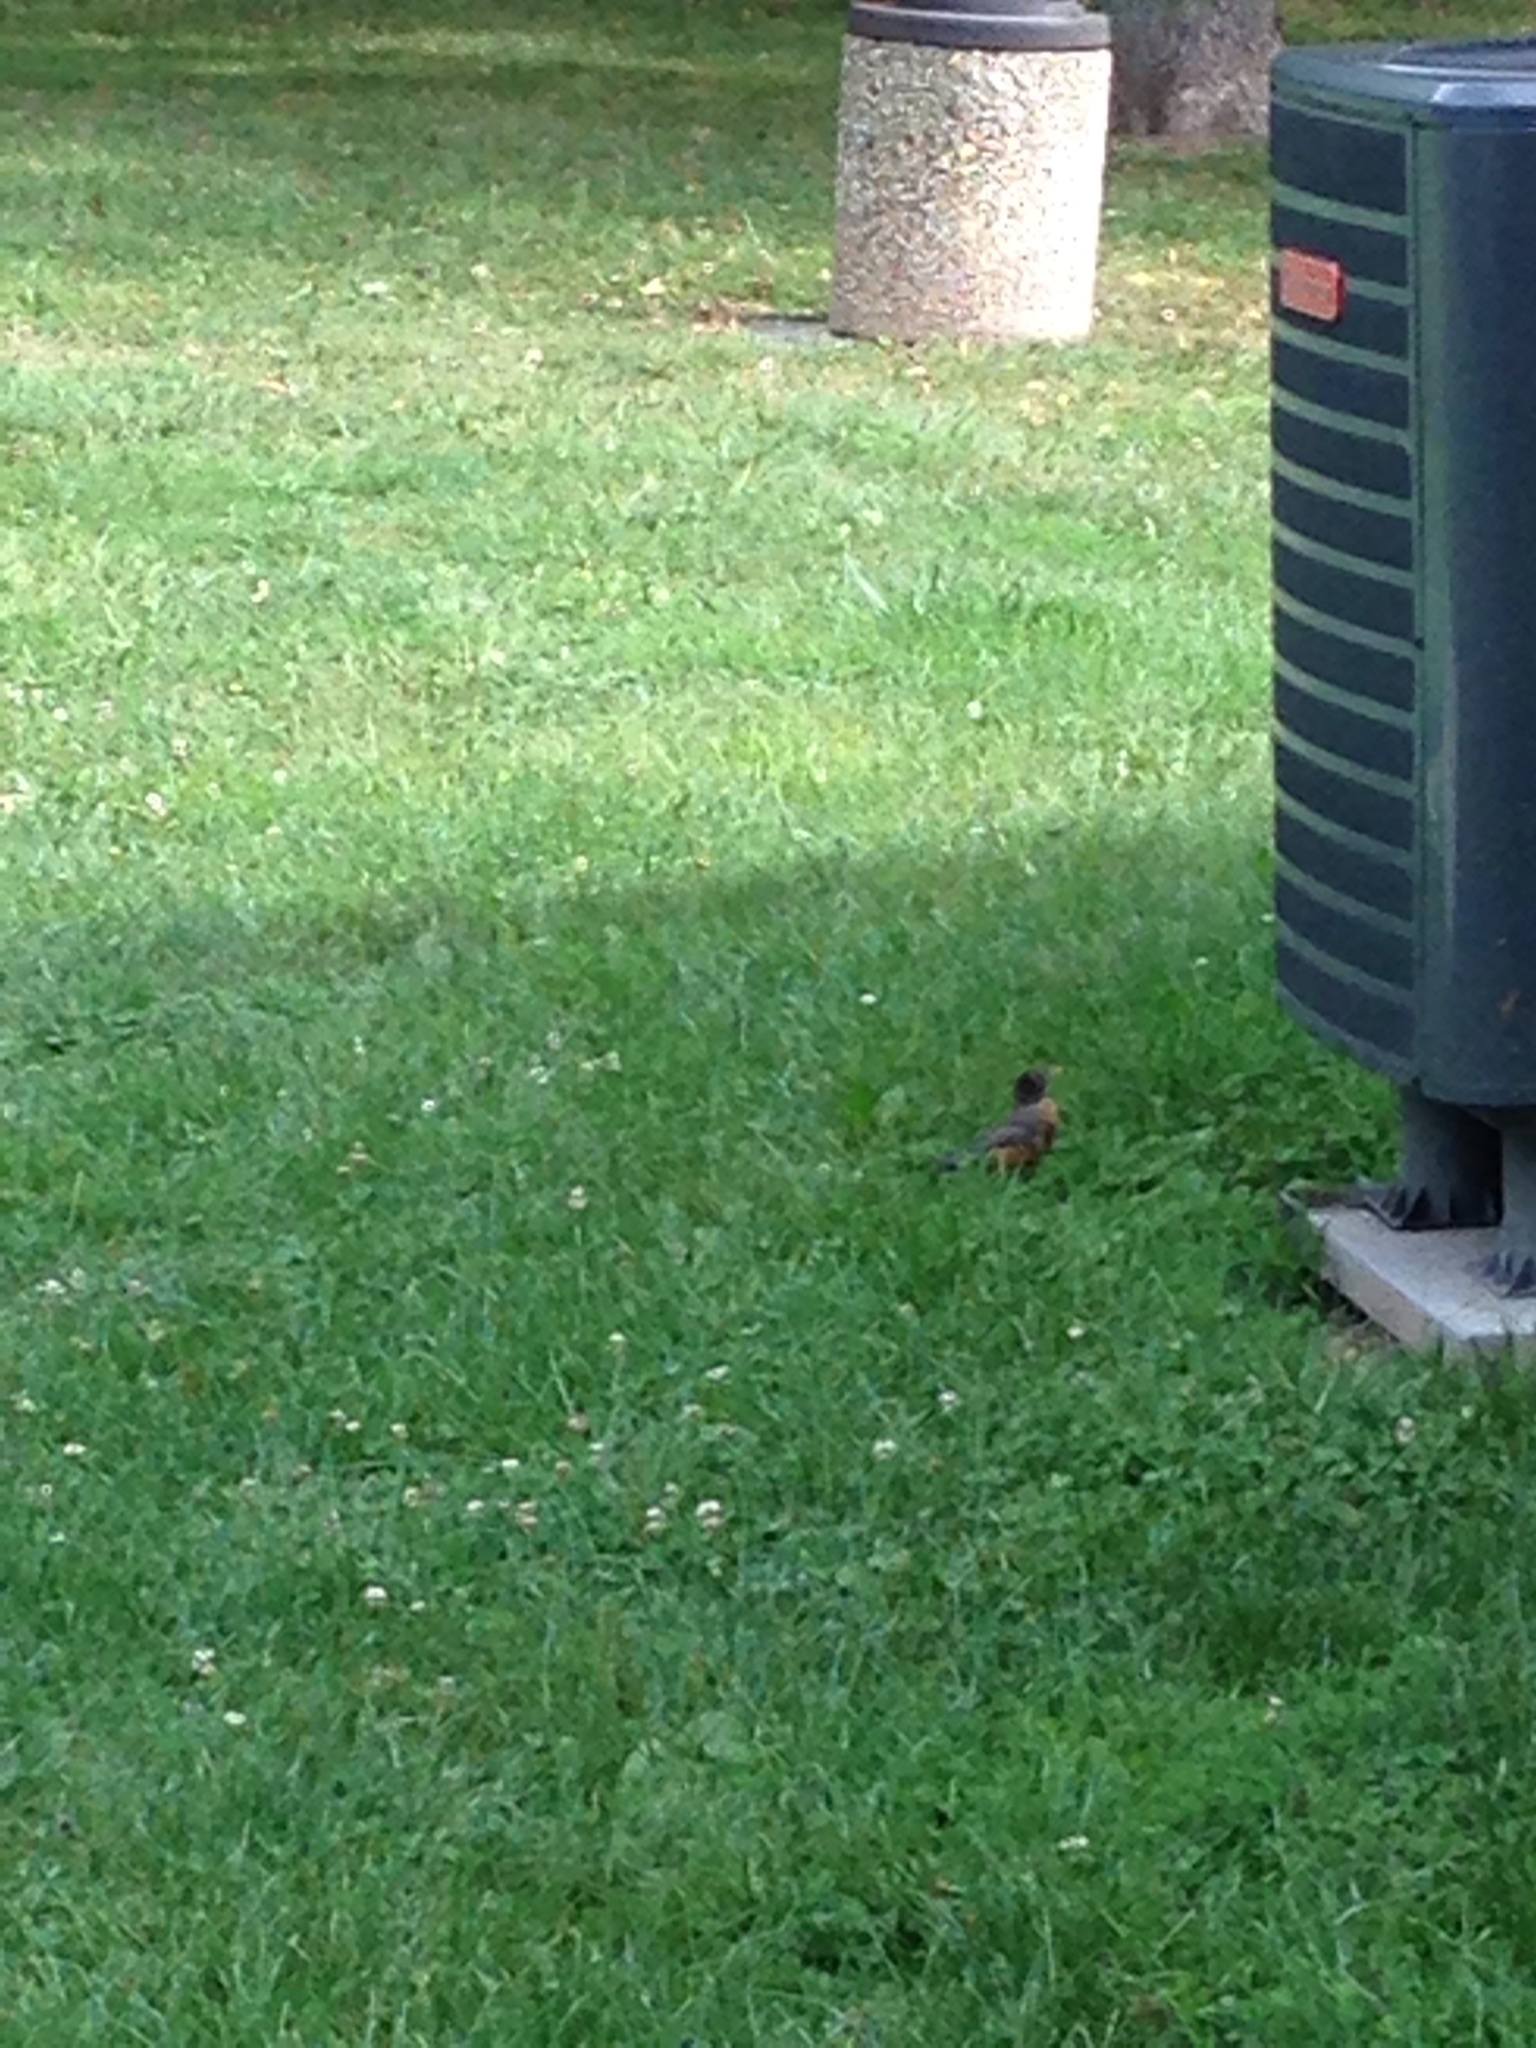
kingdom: Animalia
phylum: Chordata
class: Aves
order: Passeriformes
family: Turdidae
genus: Turdus
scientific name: Turdus migratorius
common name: American robin
